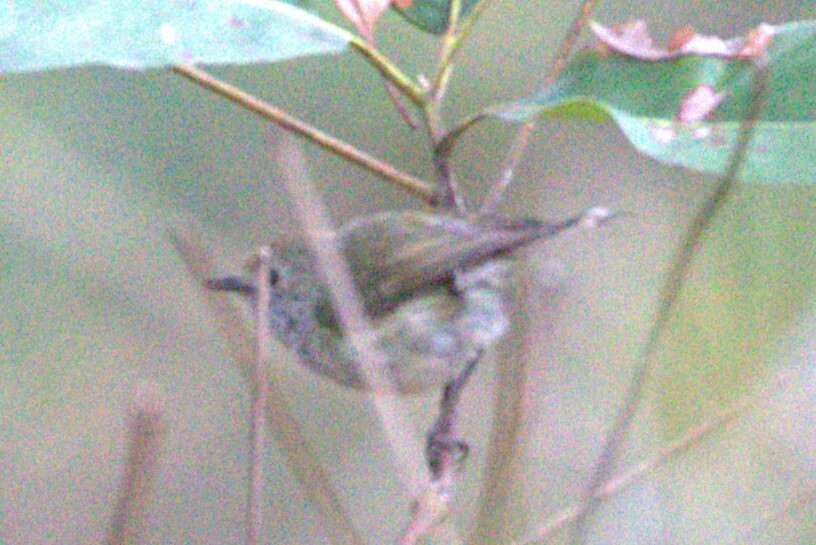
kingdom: Animalia
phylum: Chordata
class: Aves
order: Passeriformes
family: Acanthizidae
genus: Acanthiza
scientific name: Acanthiza pusilla
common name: Brown thornbill
